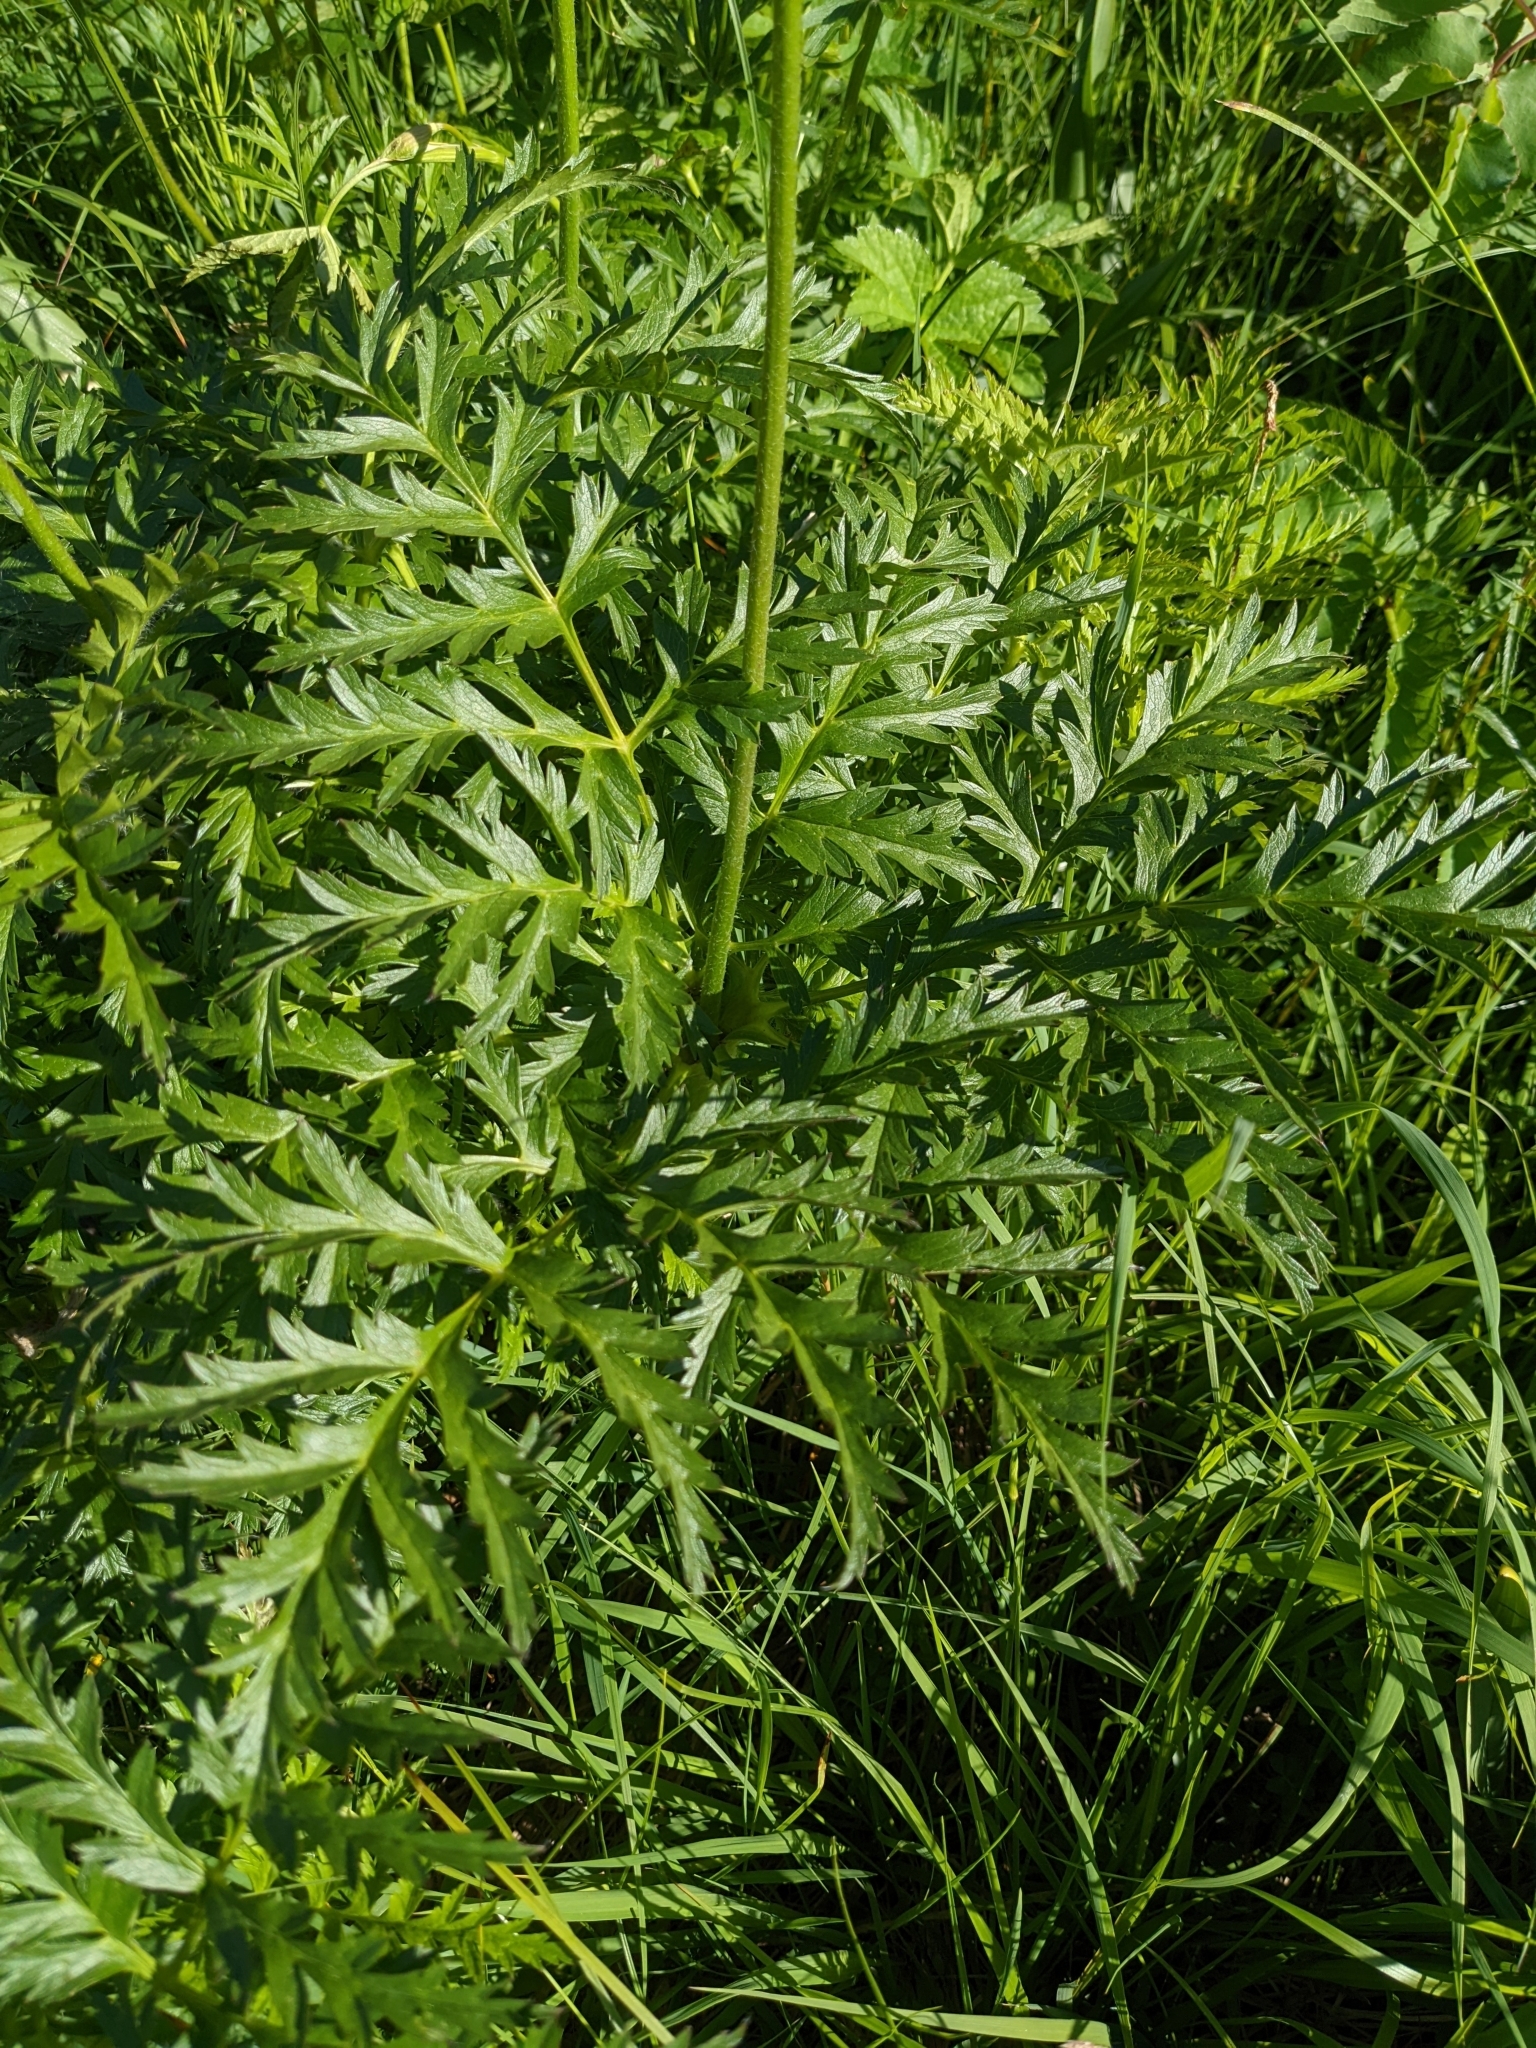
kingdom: Plantae
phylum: Tracheophyta
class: Magnoliopsida
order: Ranunculales
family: Ranunculaceae
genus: Pulsatilla
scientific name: Pulsatilla alpina
